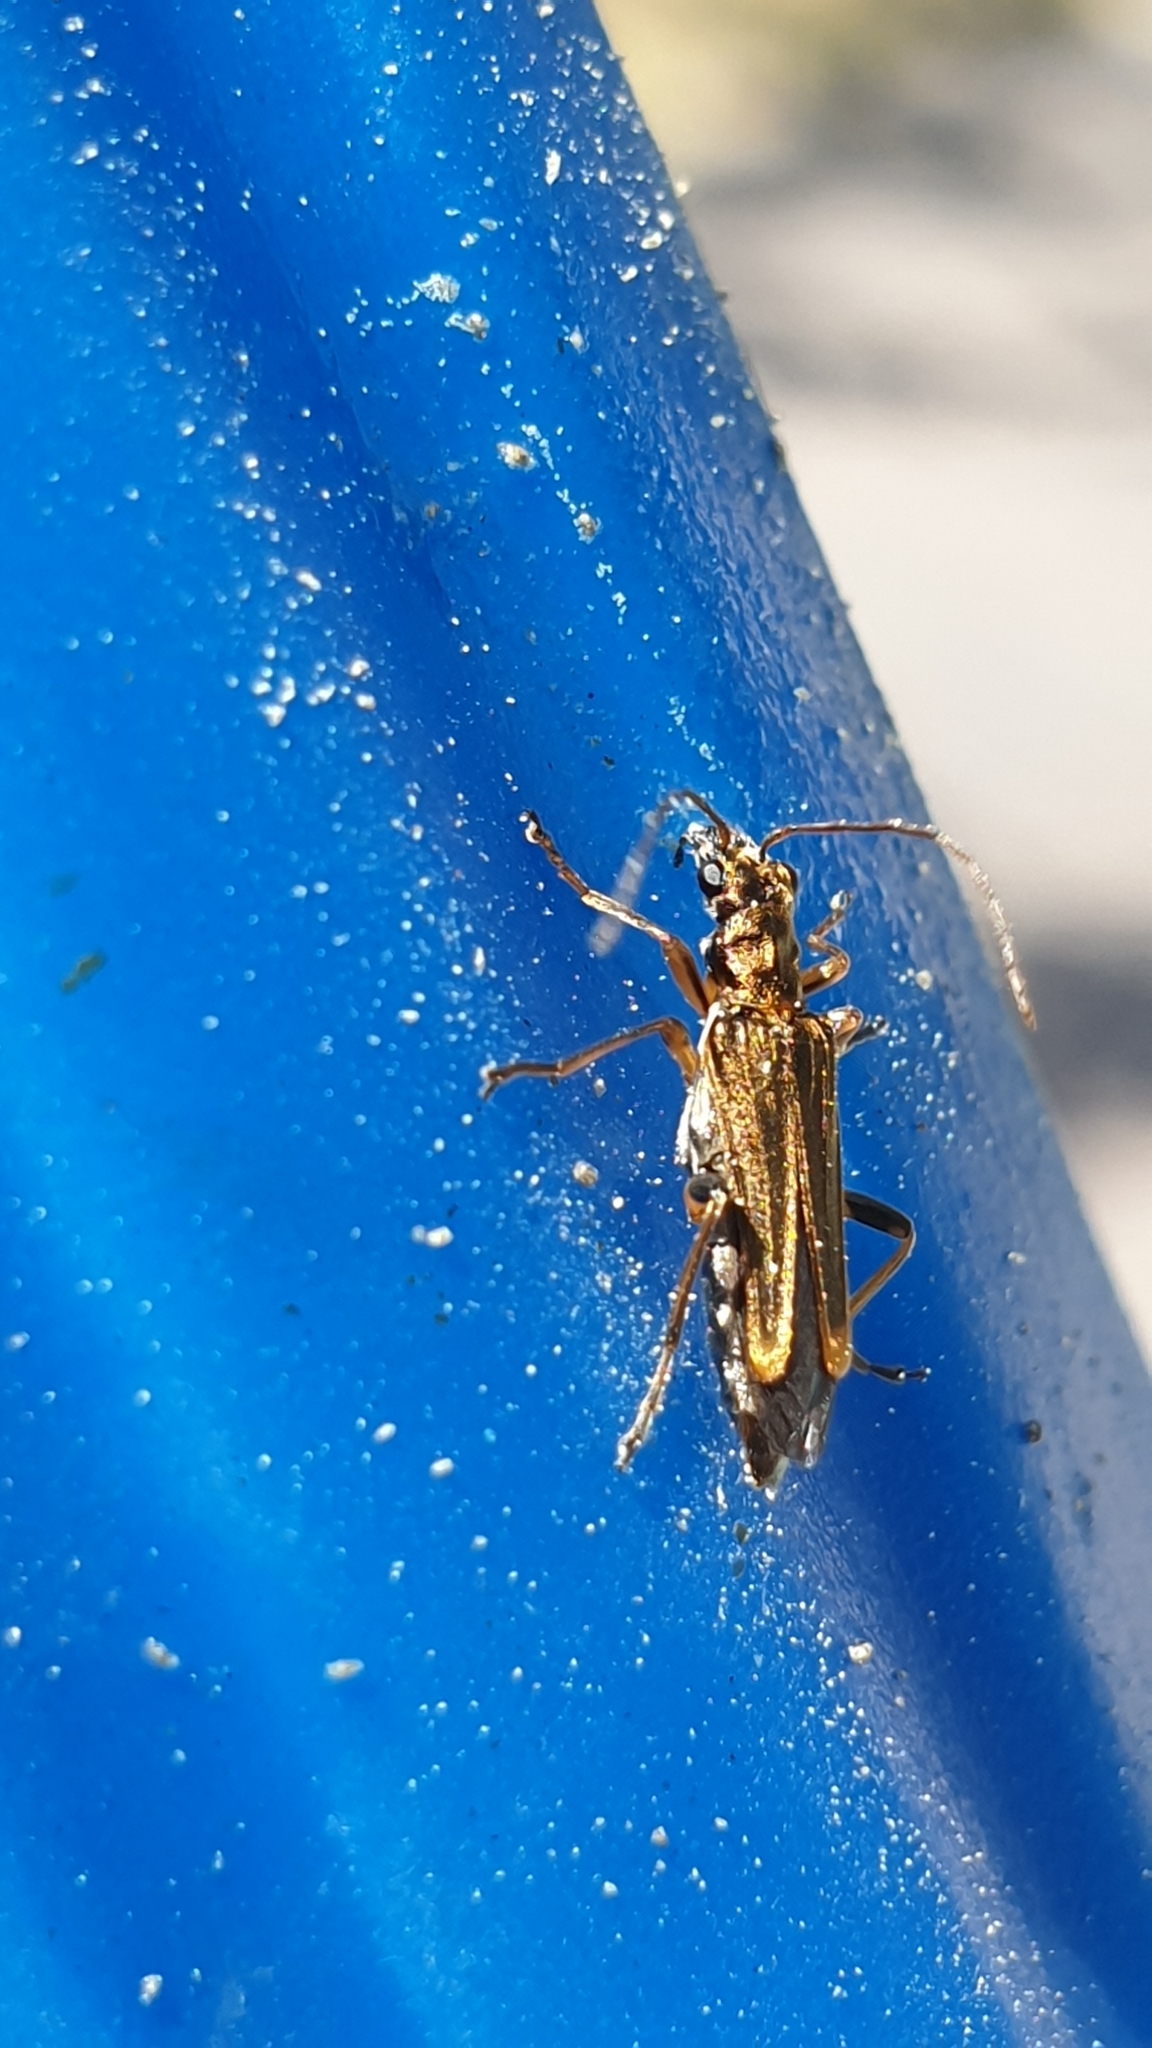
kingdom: Animalia
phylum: Arthropoda
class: Insecta
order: Coleoptera
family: Oedemeridae
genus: Oedemera
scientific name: Oedemera barbara
